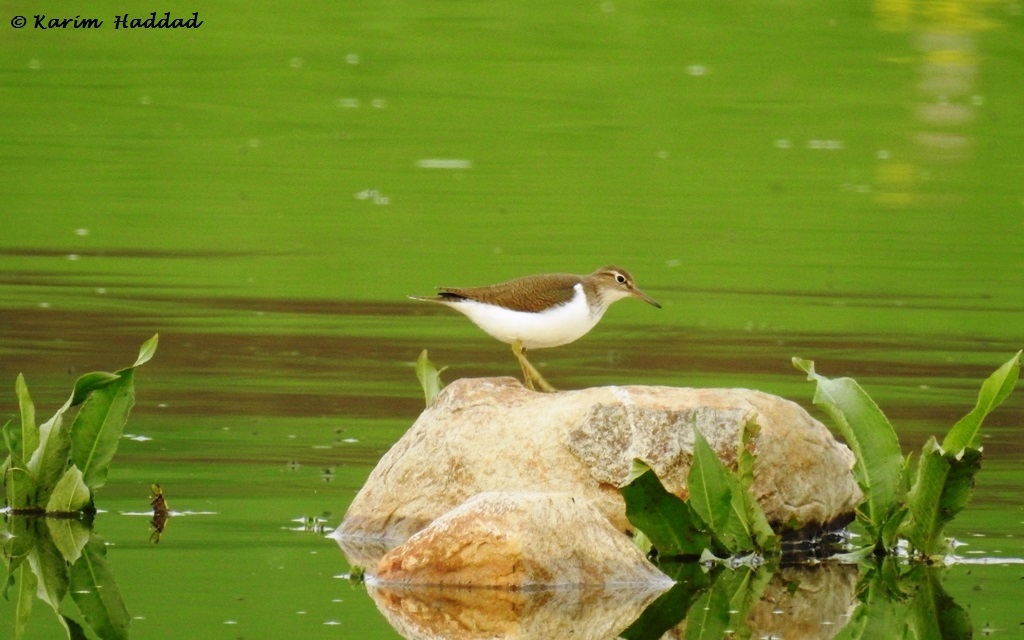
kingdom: Animalia
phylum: Chordata
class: Aves
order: Charadriiformes
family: Scolopacidae
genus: Actitis
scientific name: Actitis hypoleucos
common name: Common sandpiper
